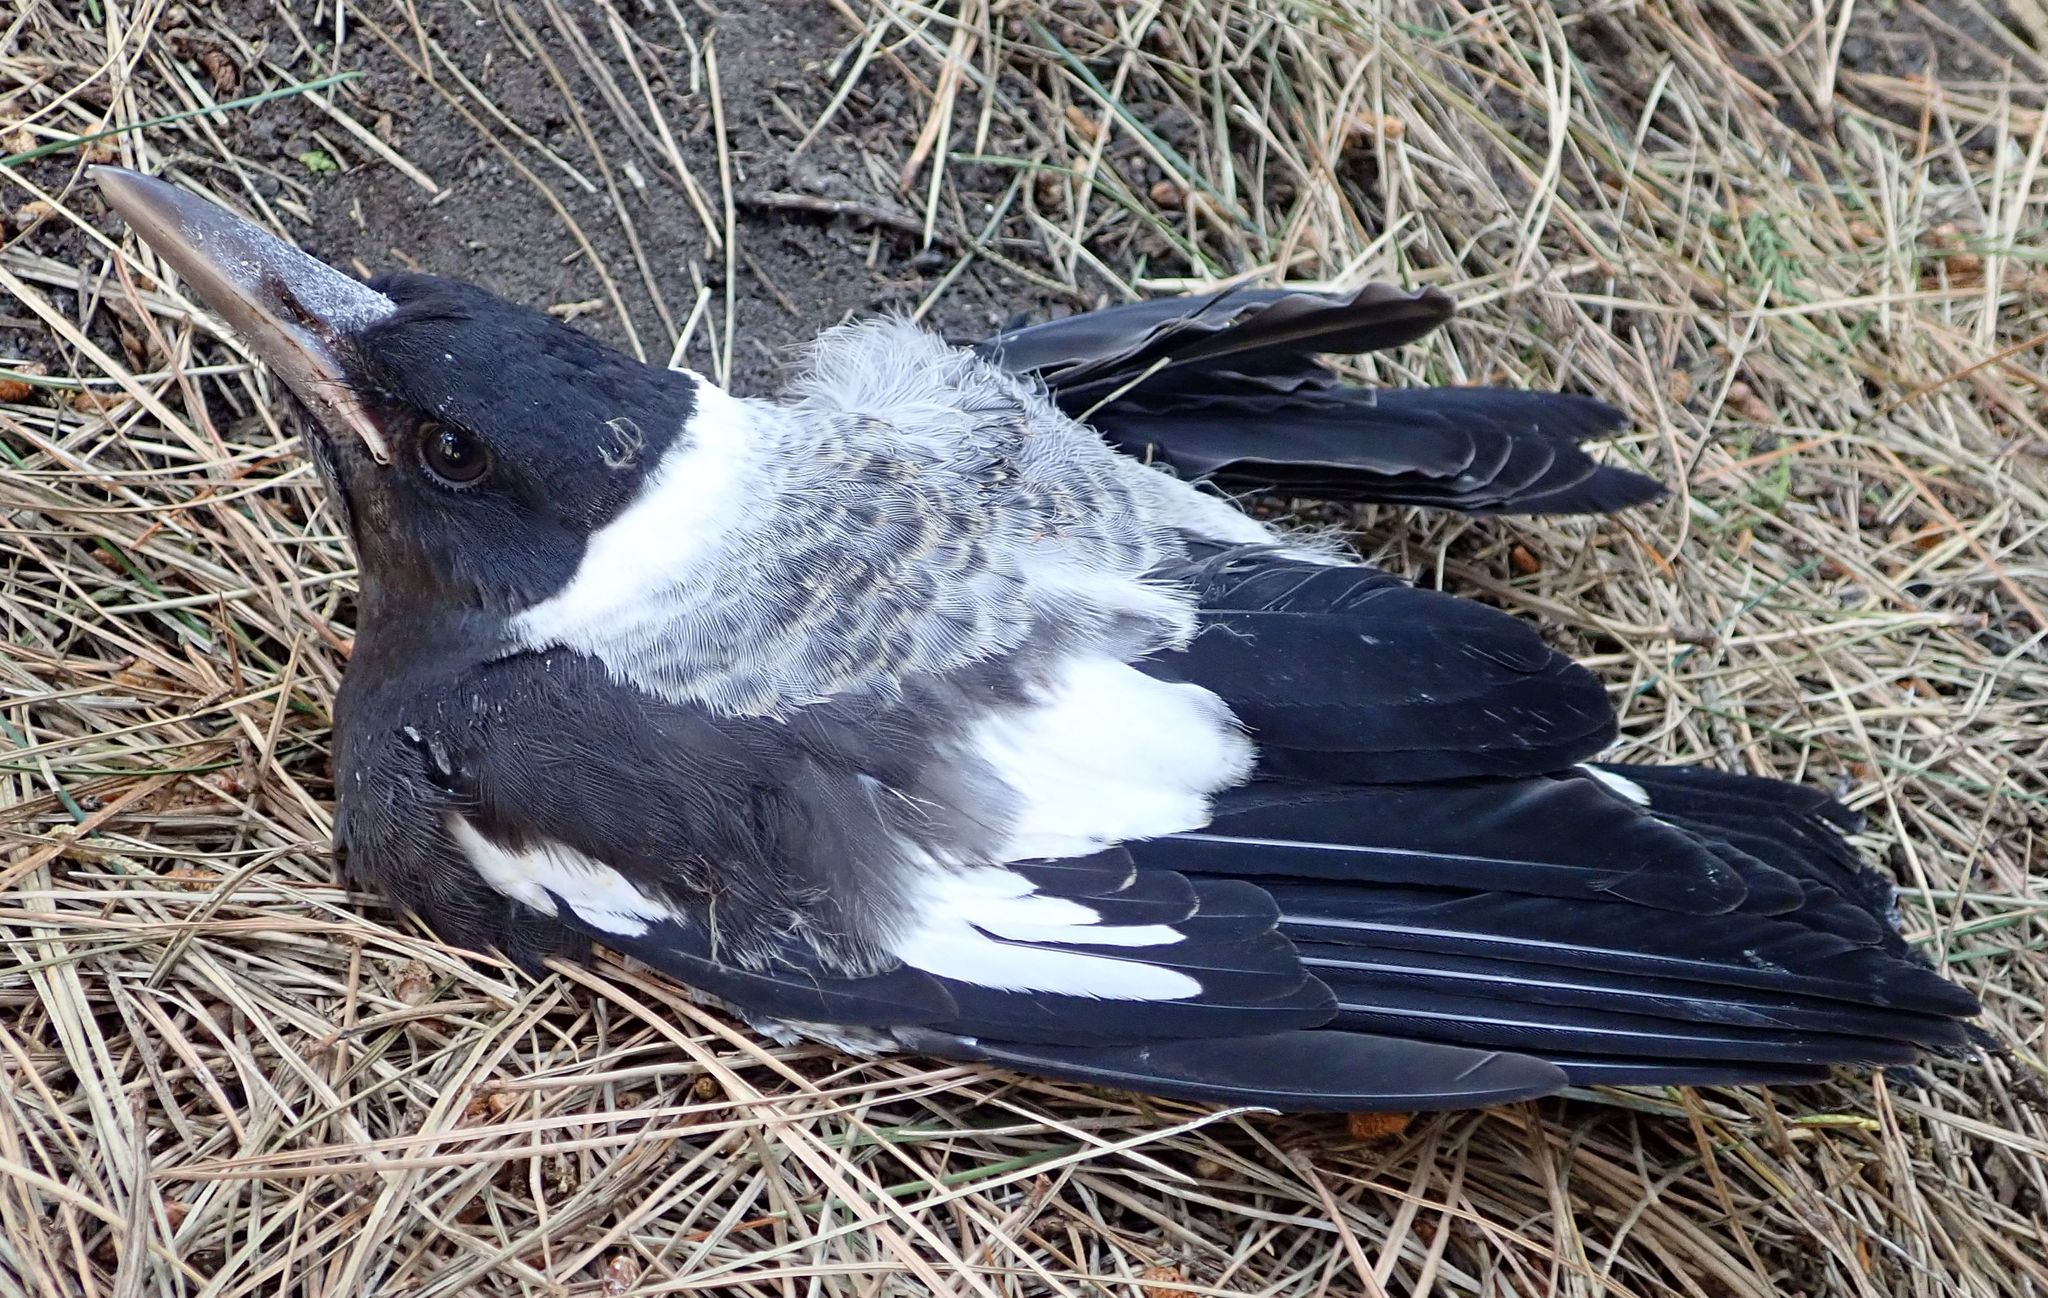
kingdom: Animalia
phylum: Chordata
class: Aves
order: Passeriformes
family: Cracticidae
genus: Gymnorhina
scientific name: Gymnorhina tibicen
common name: Australian magpie
